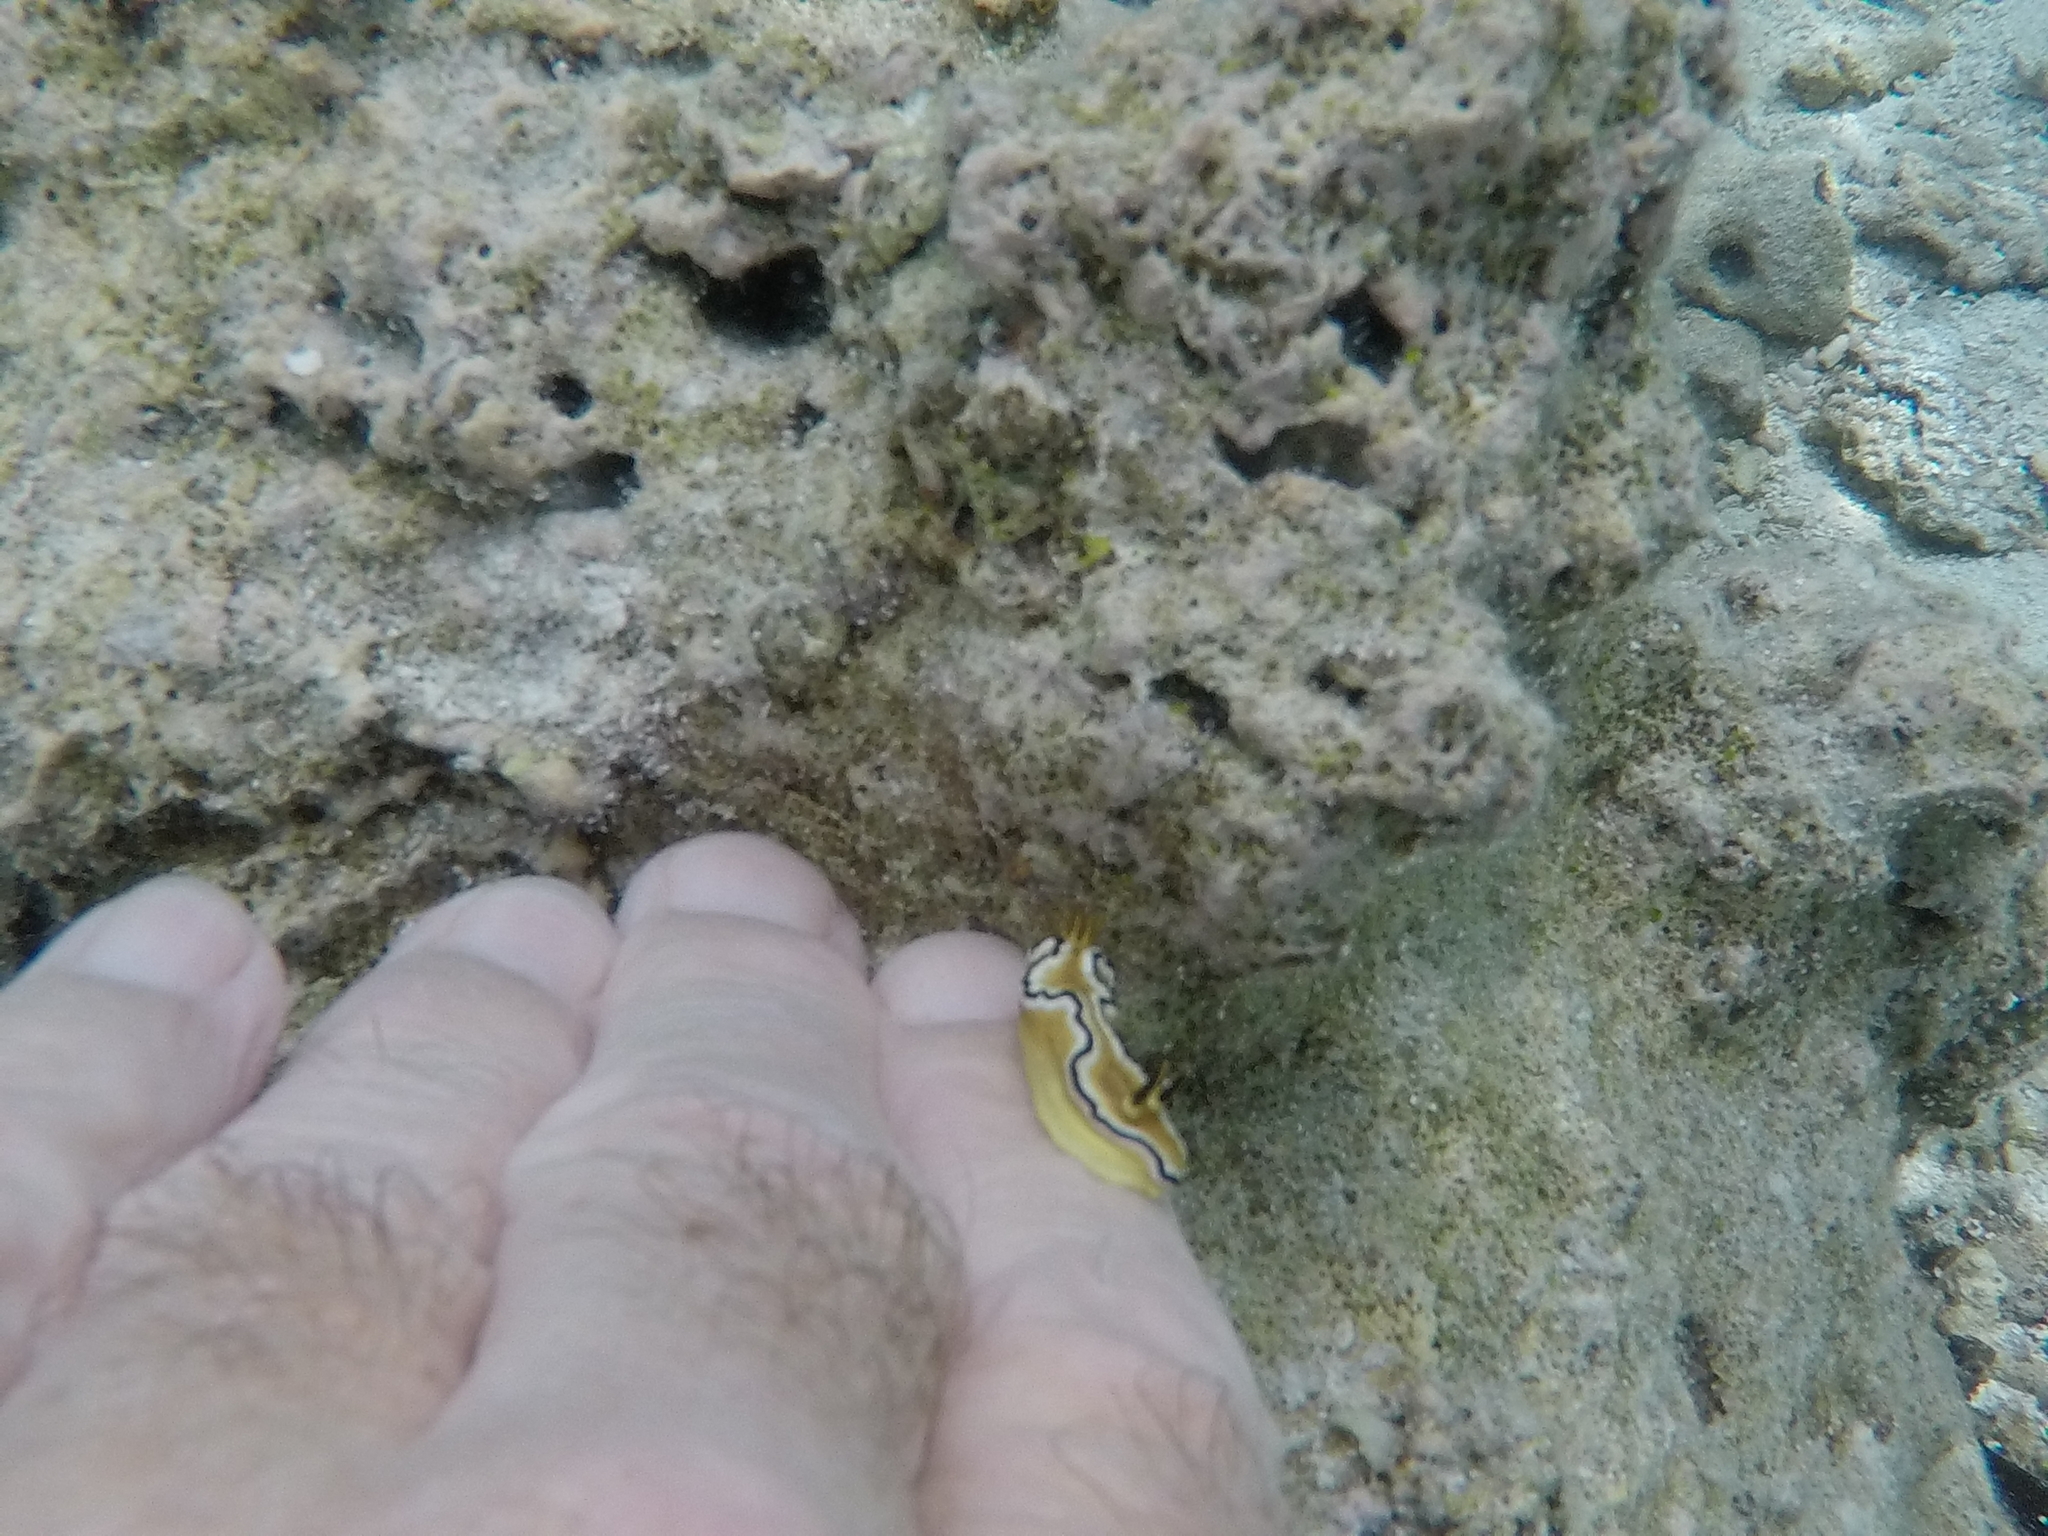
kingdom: Animalia
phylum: Mollusca
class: Gastropoda
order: Nudibranchia
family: Chromodorididae
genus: Doriprismatica
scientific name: Doriprismatica sibogae
